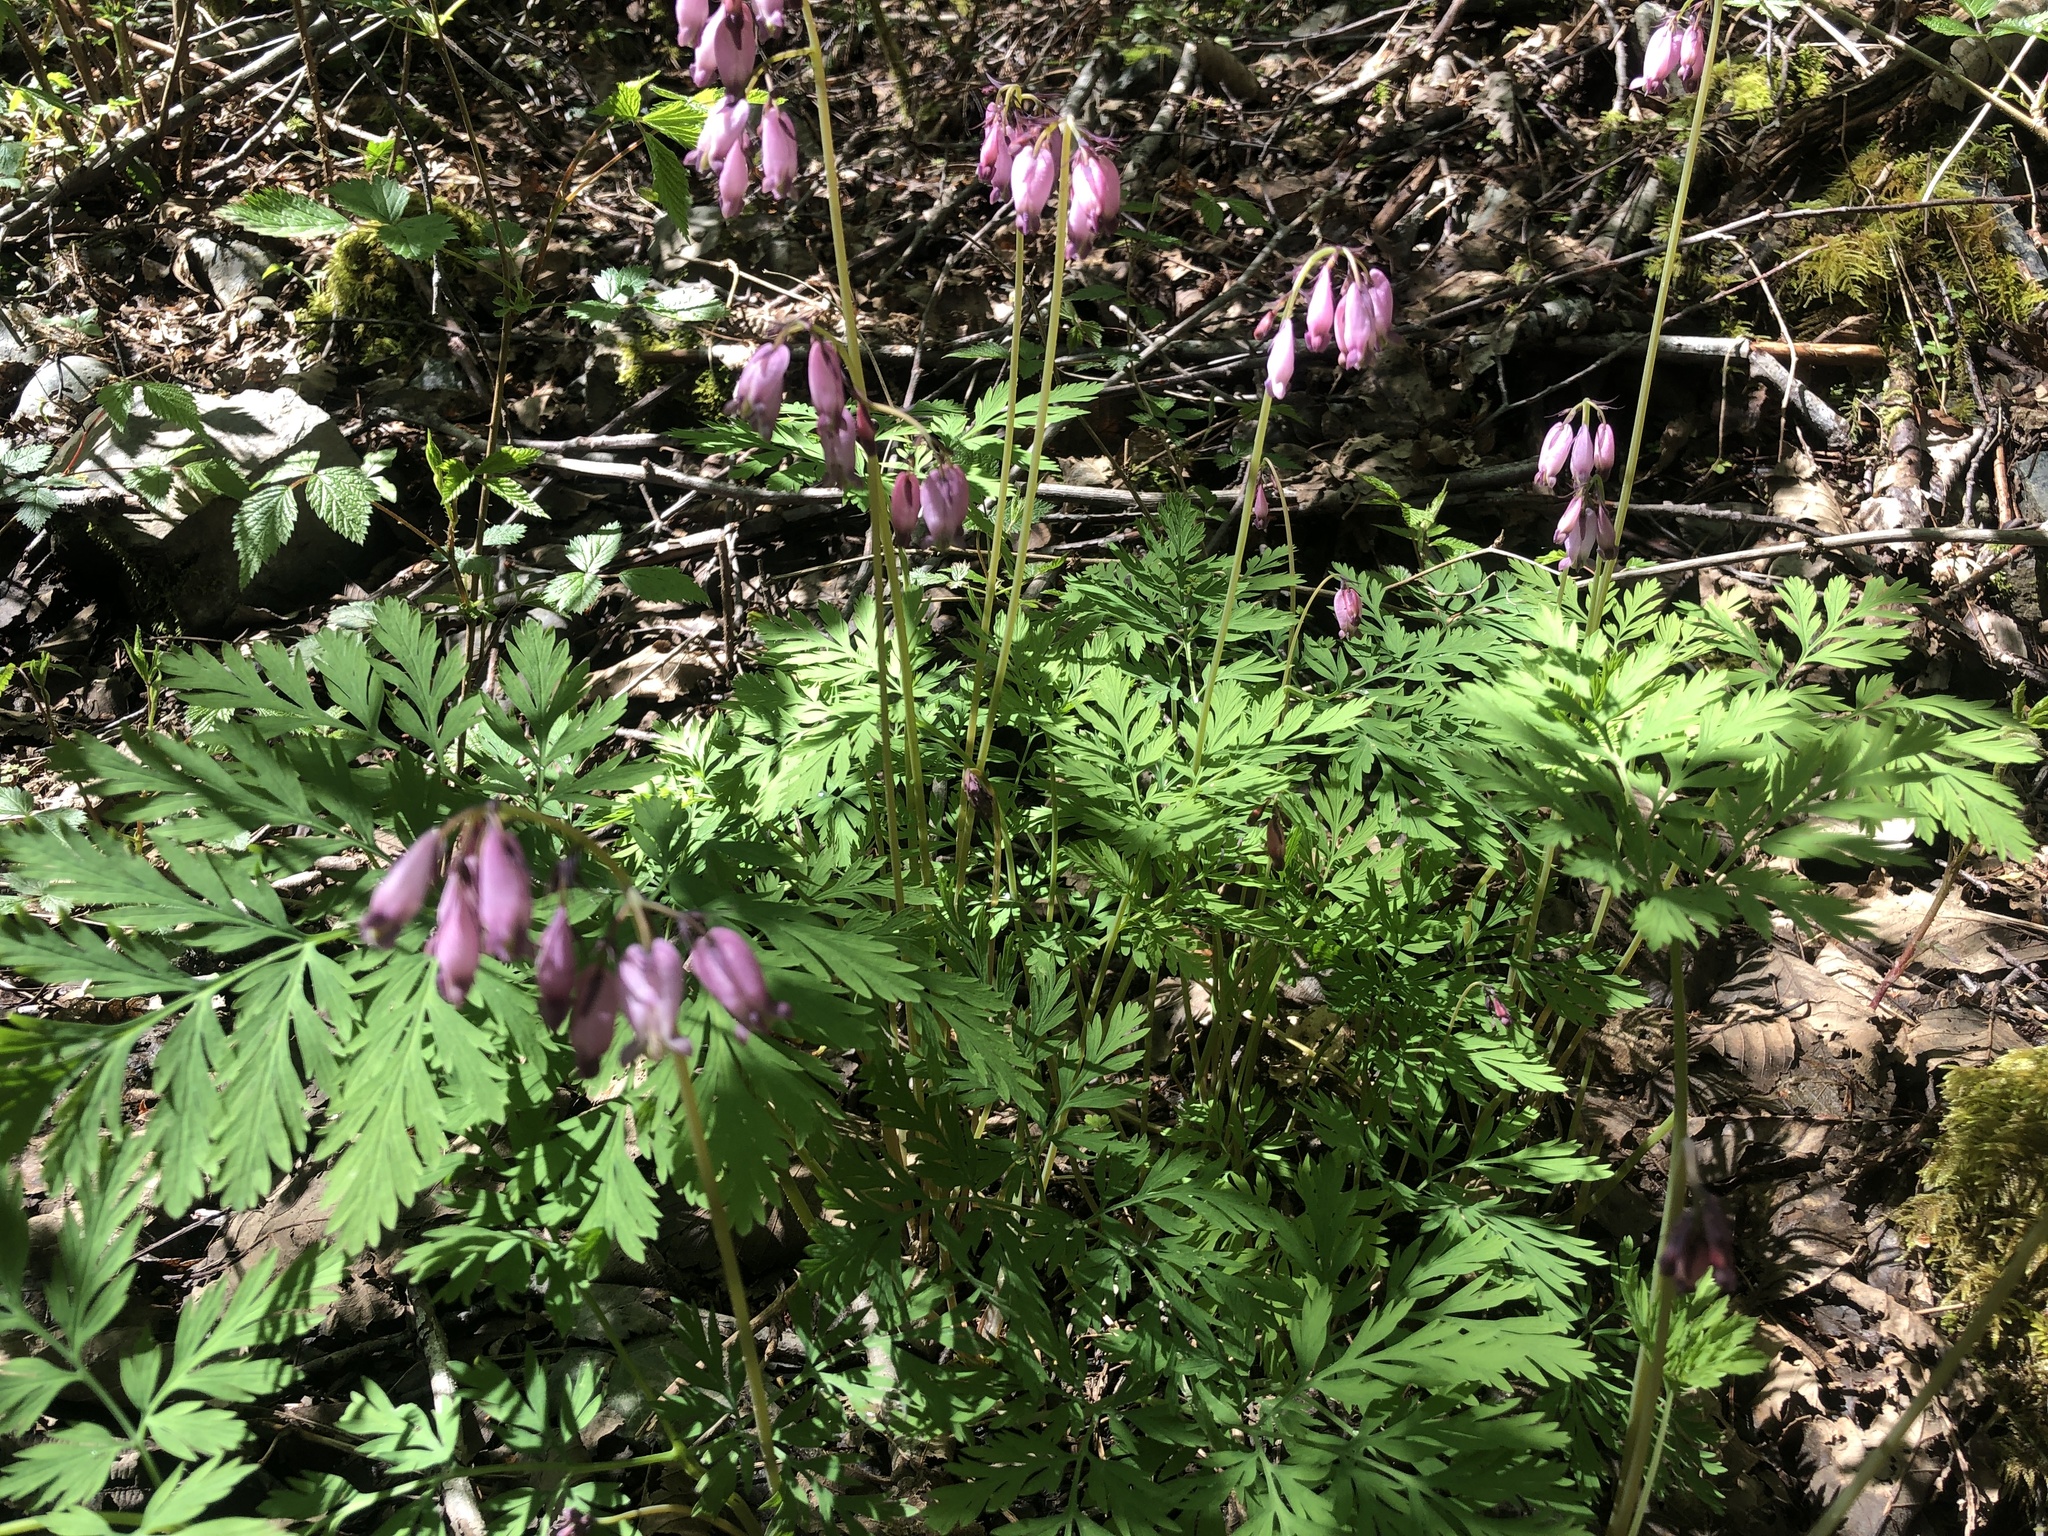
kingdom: Plantae
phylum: Tracheophyta
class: Magnoliopsida
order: Ranunculales
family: Papaveraceae
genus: Dicentra
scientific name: Dicentra formosa
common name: Bleeding-heart
